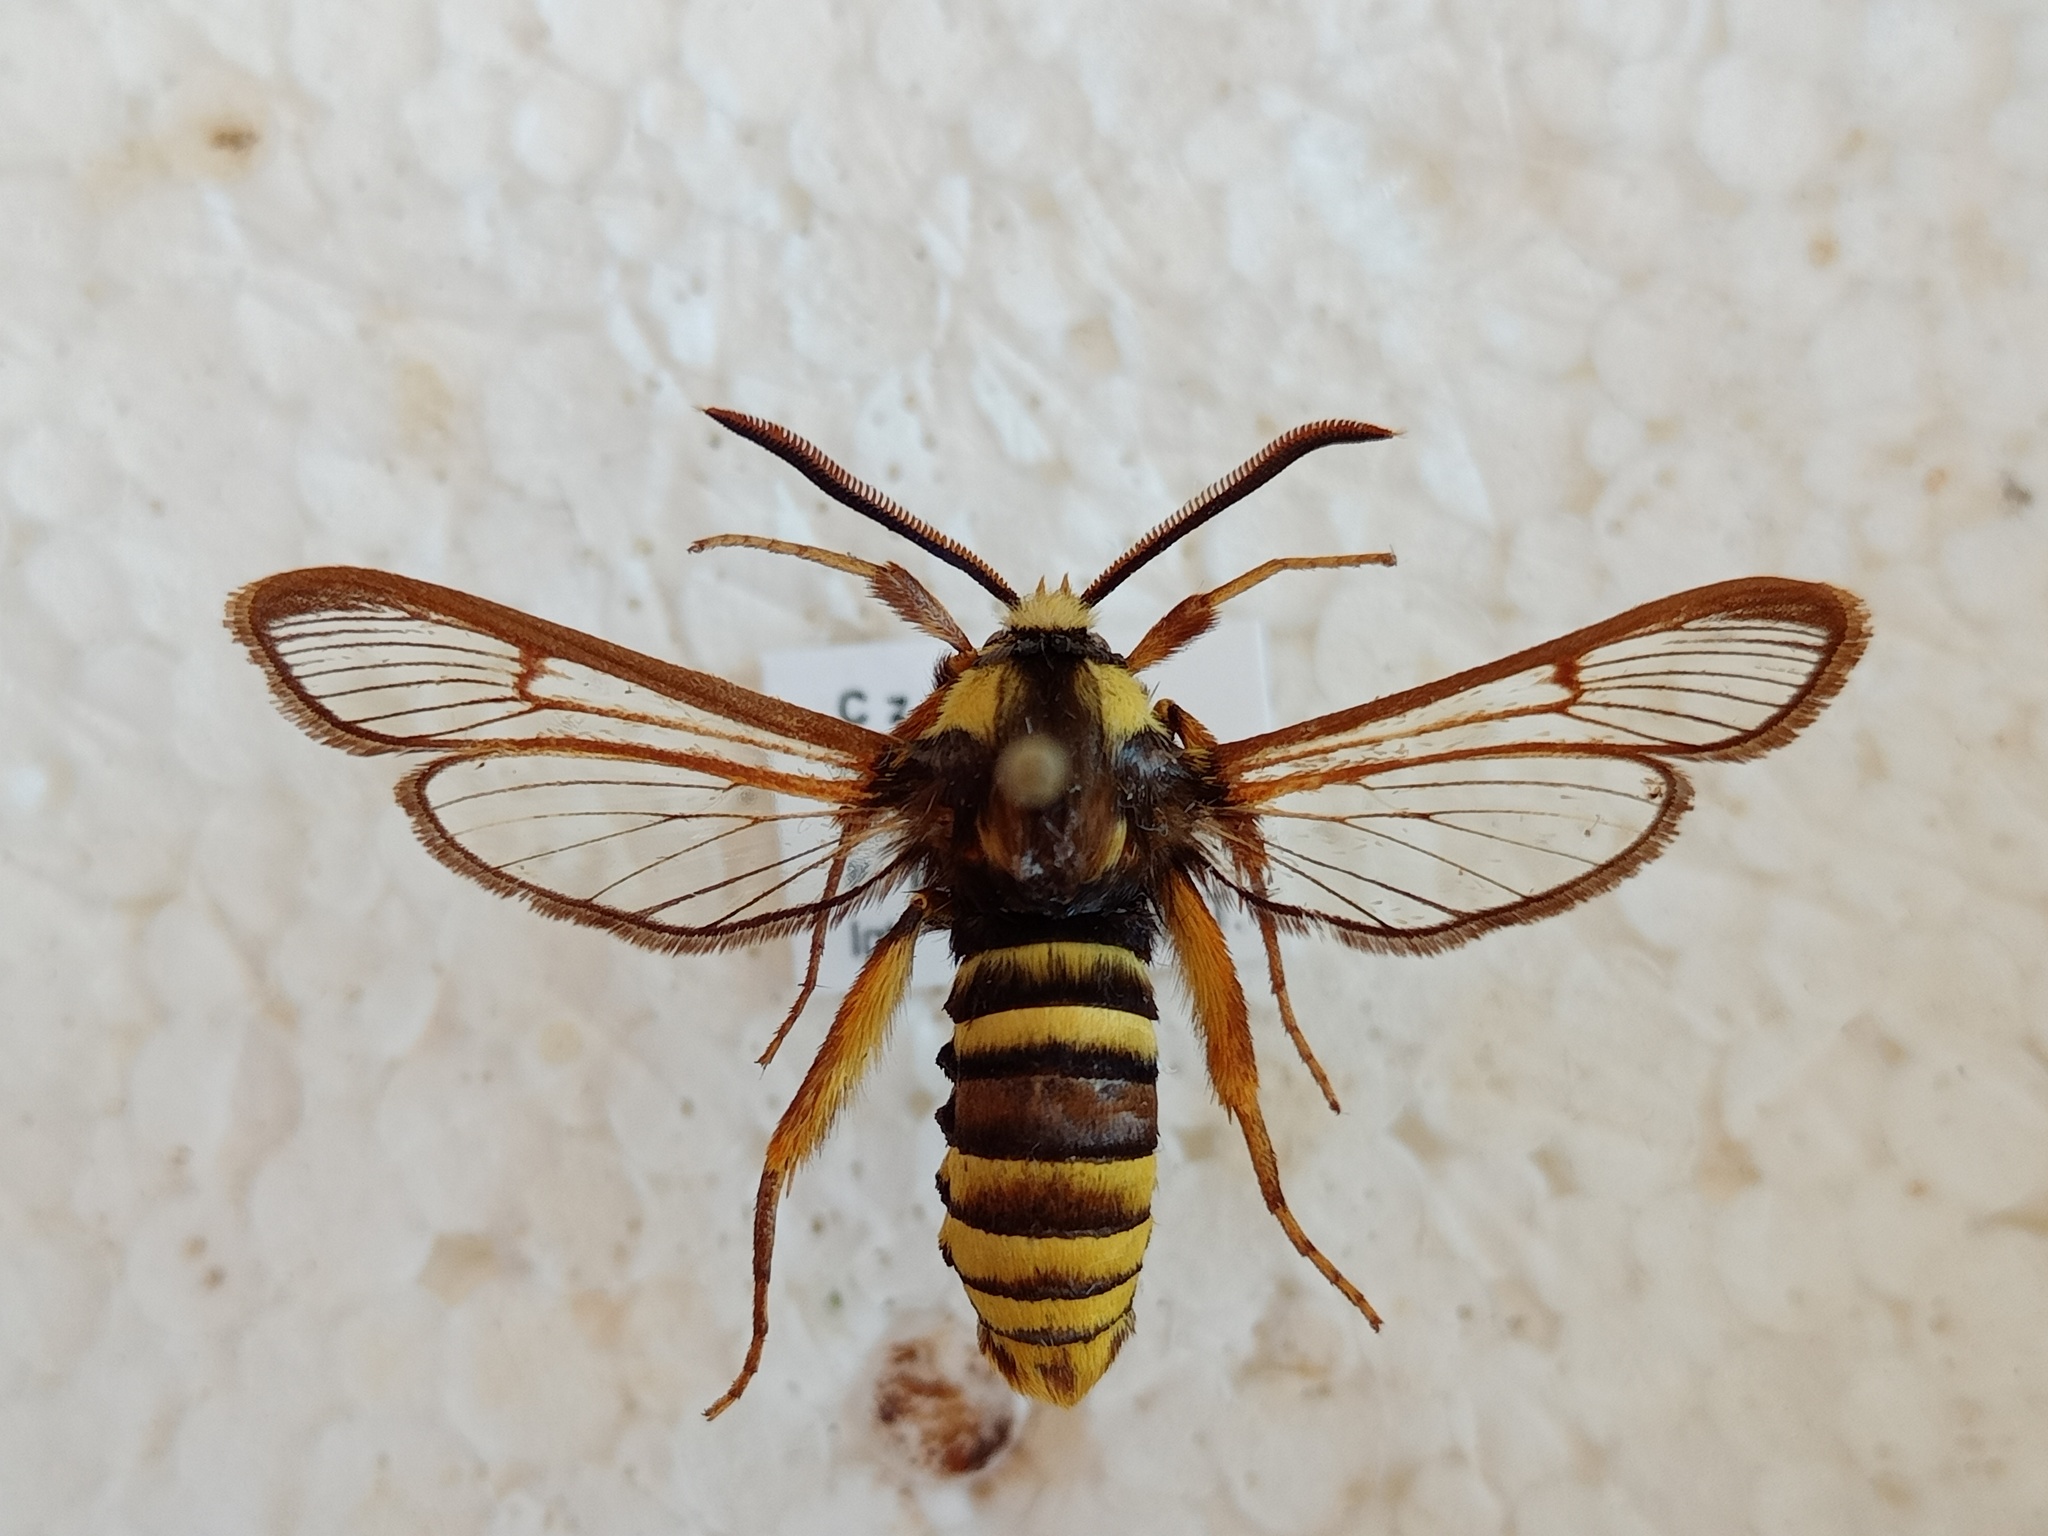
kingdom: Animalia
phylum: Arthropoda
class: Insecta
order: Lepidoptera
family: Sesiidae
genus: Sesia
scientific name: Sesia apiformis
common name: Hornet moth
